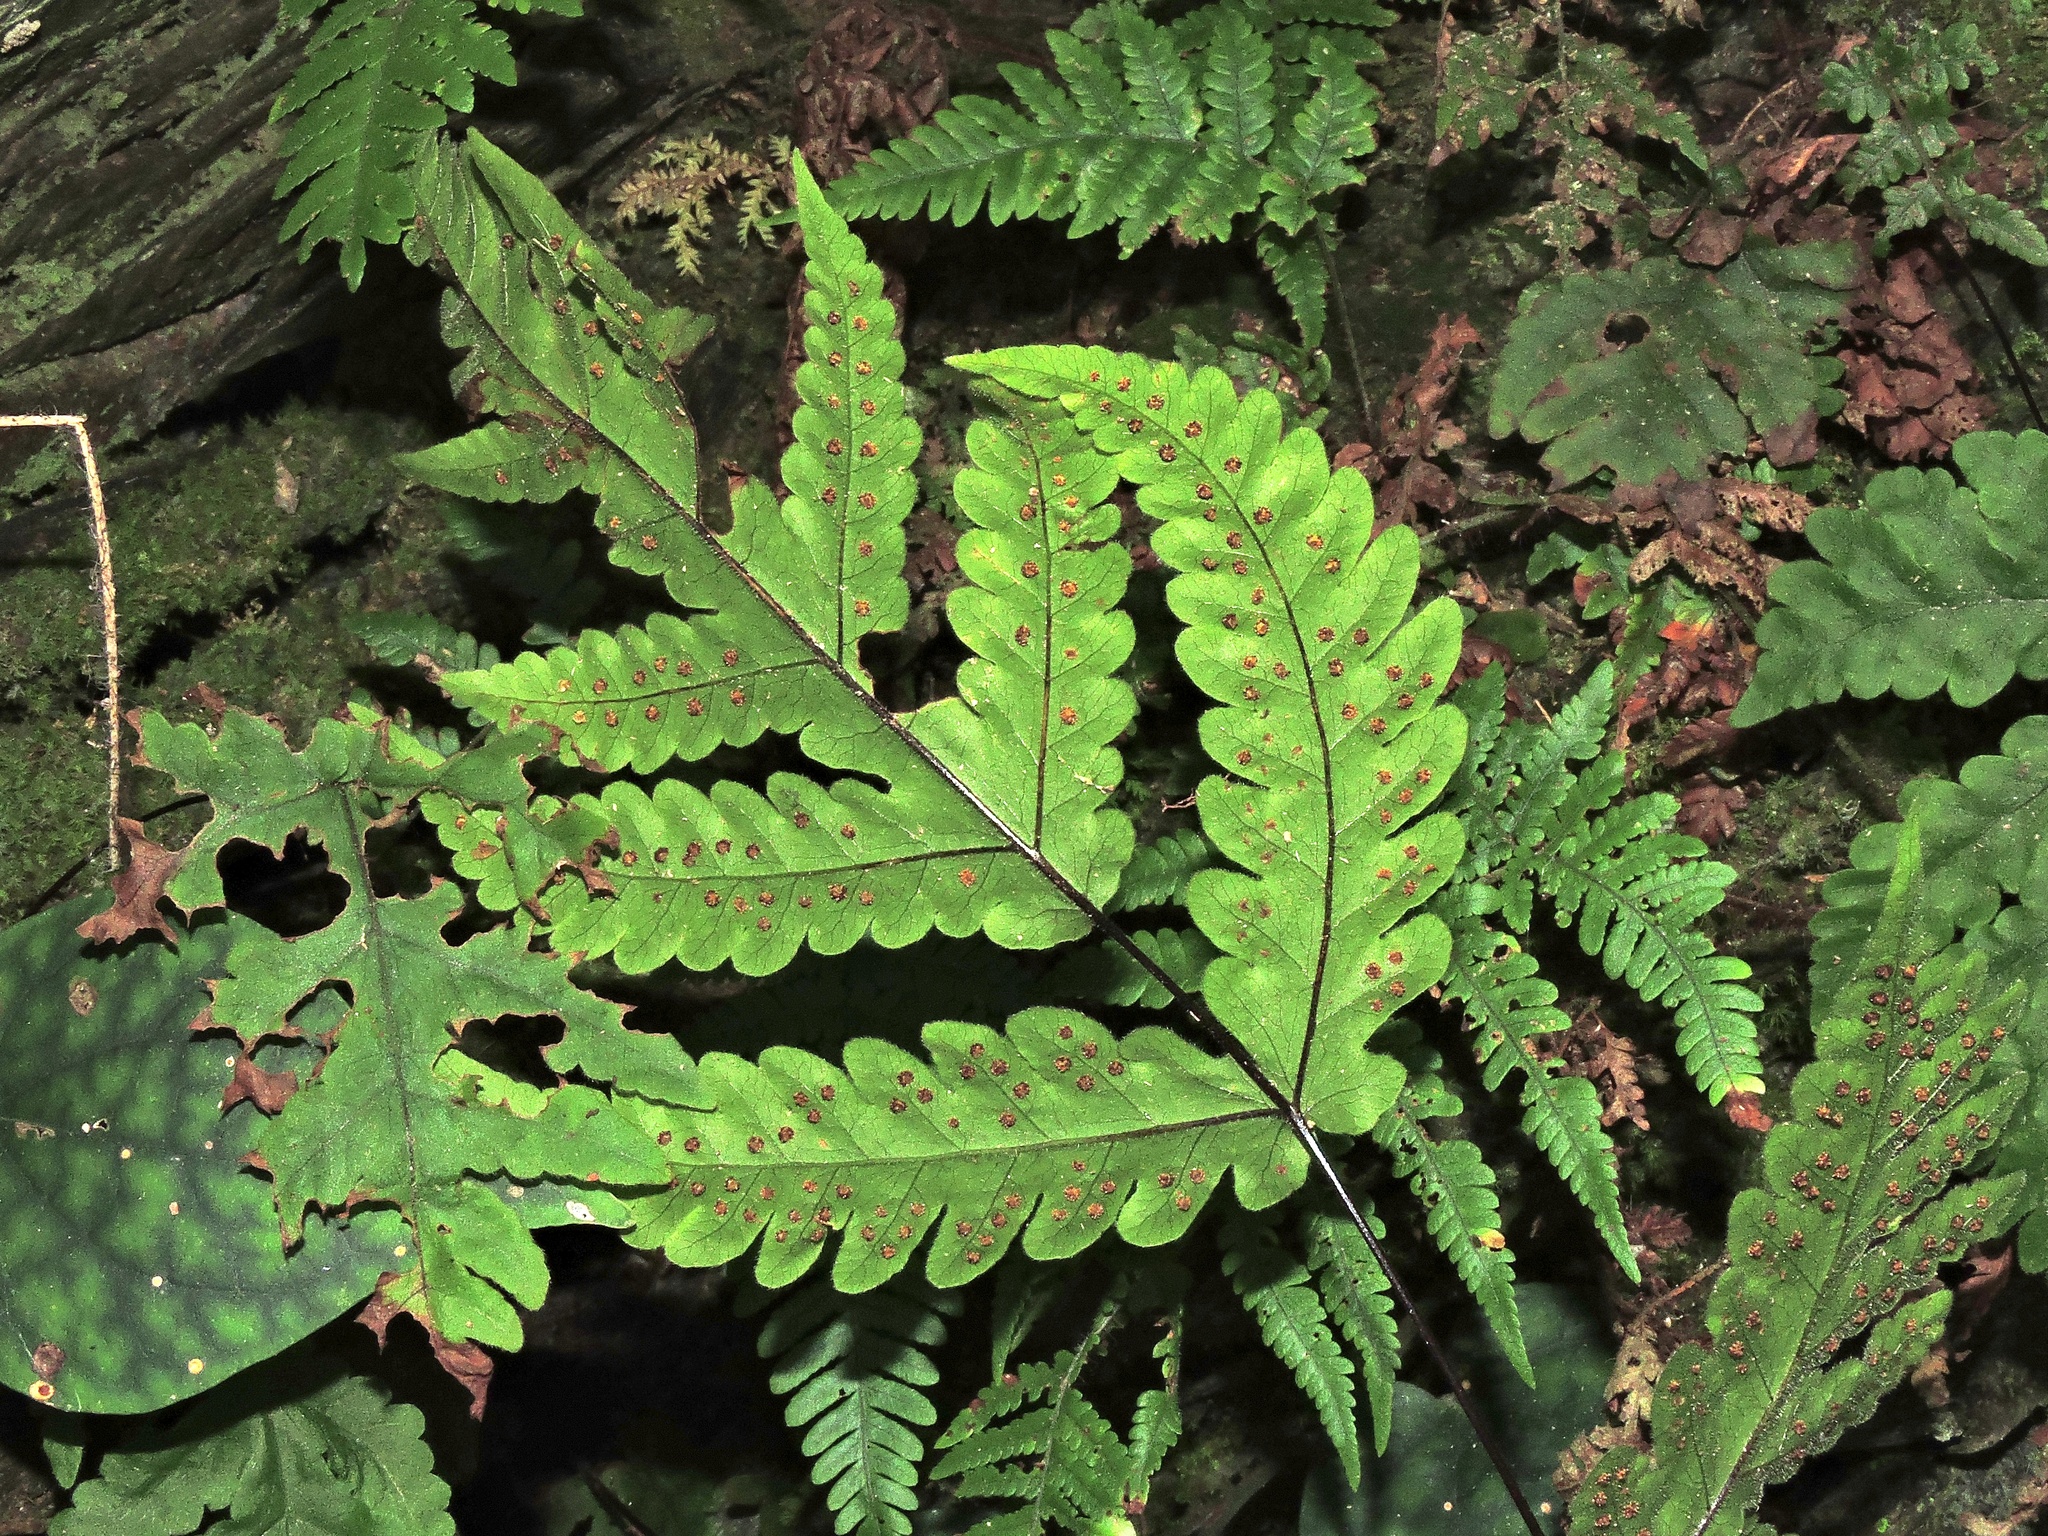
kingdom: Plantae
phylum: Tracheophyta
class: Polypodiopsida
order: Polypodiales
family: Tectariaceae
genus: Tectaria
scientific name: Tectaria coadunata
